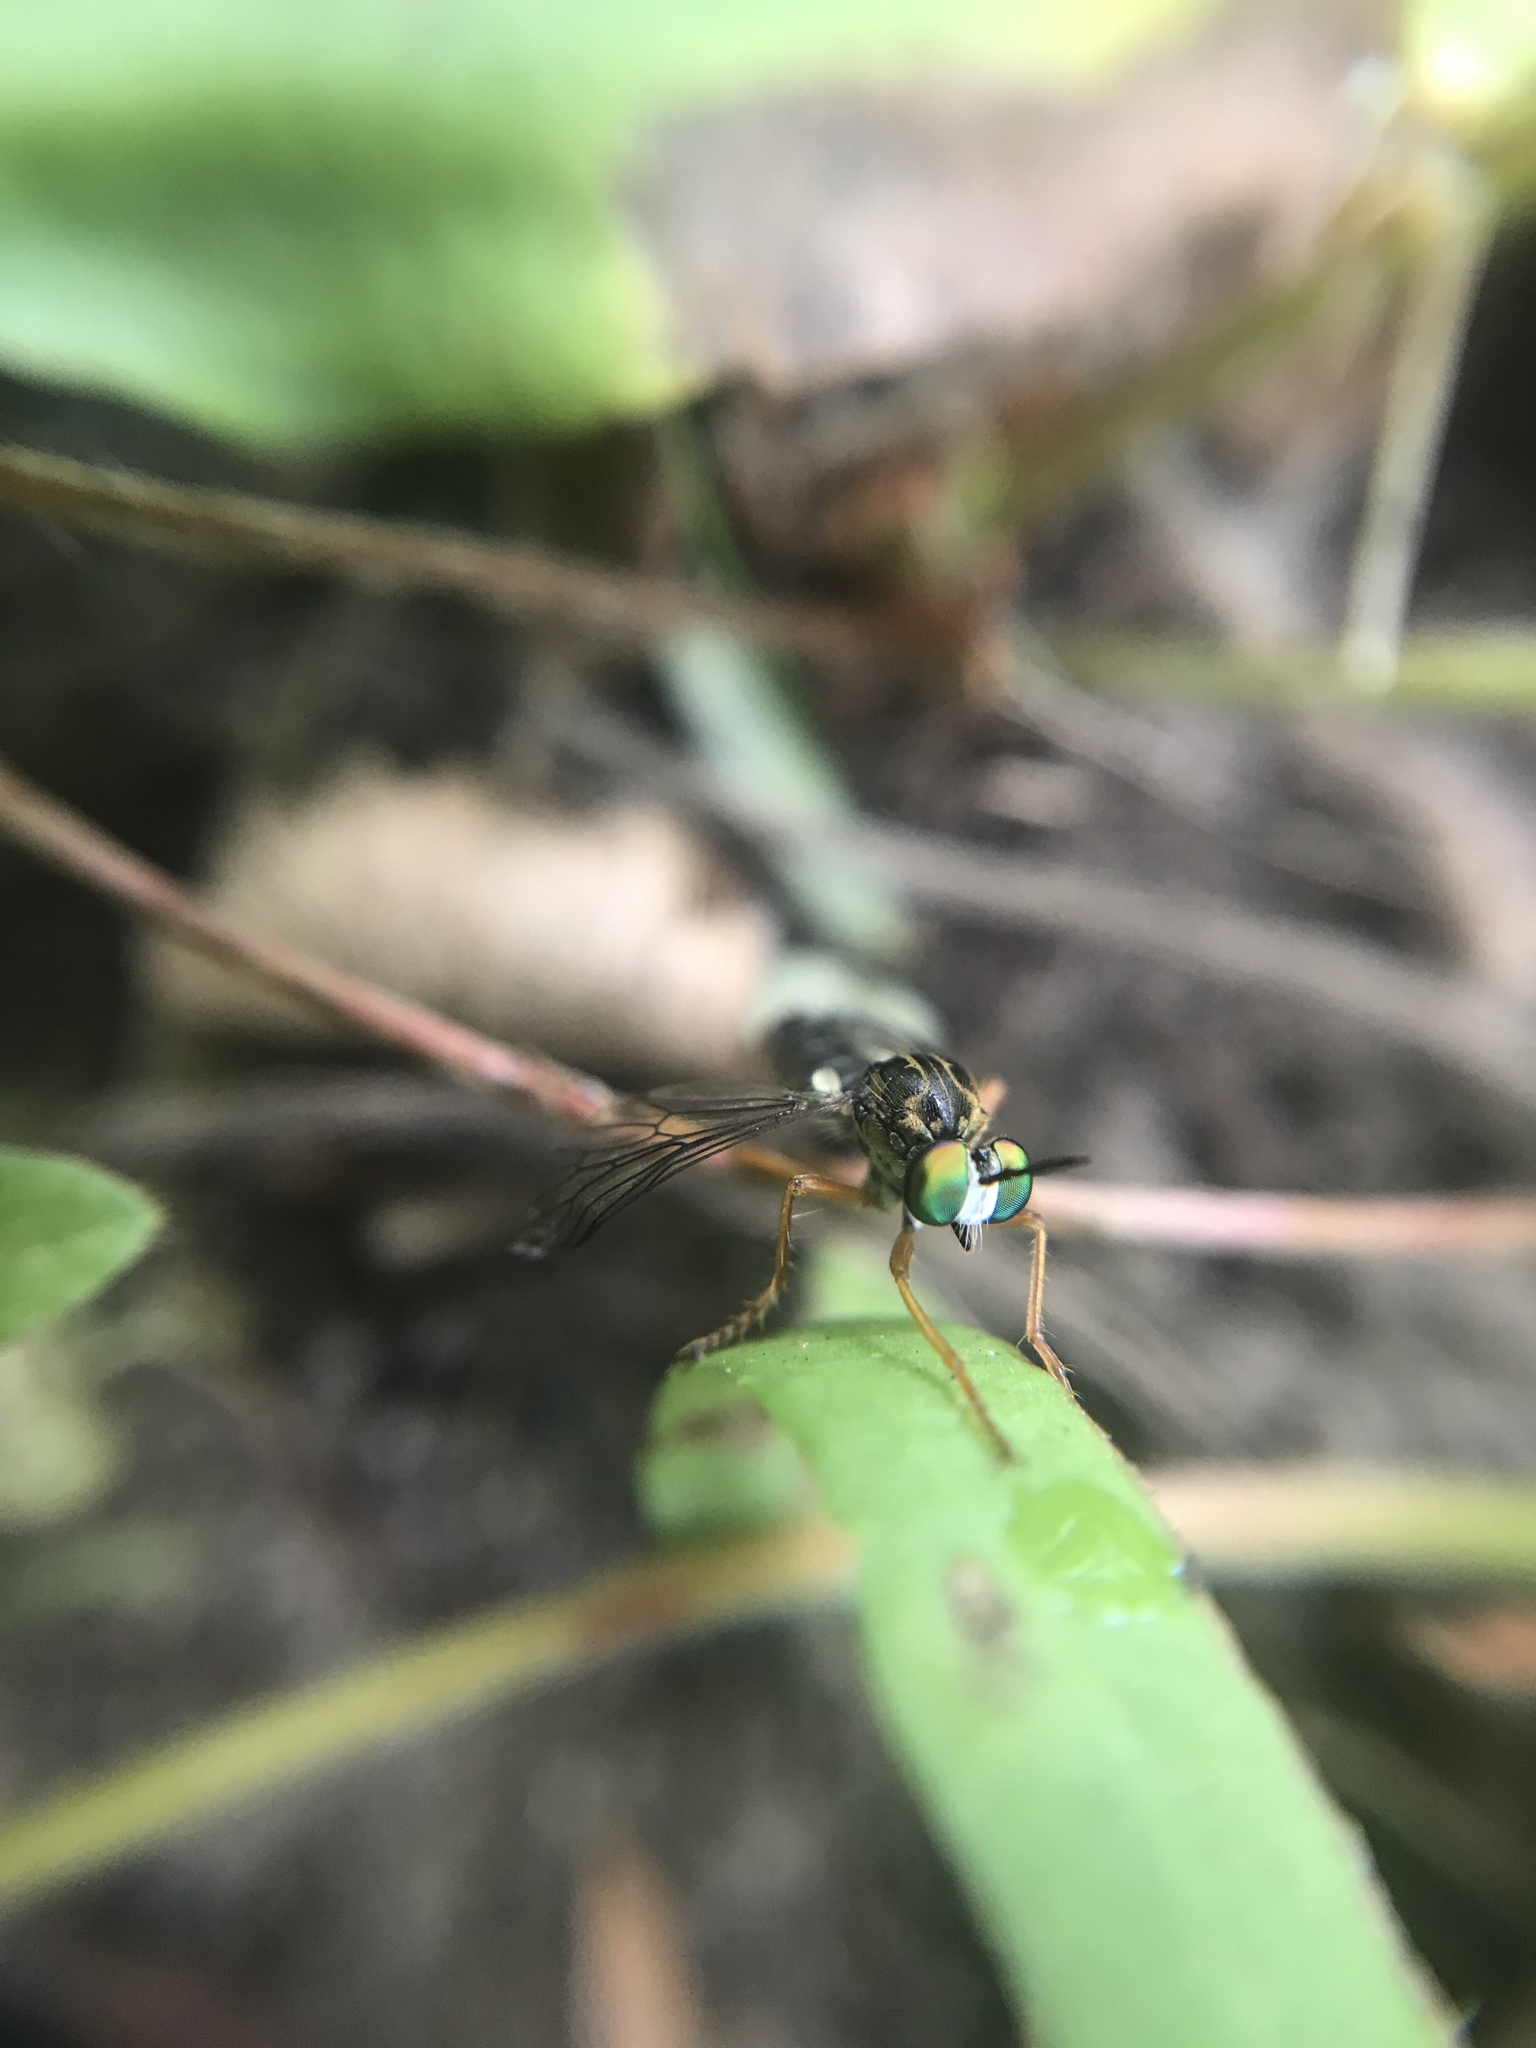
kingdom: Animalia
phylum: Arthropoda
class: Insecta
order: Diptera
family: Asilidae
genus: Taracticus
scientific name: Taracticus octopunctatus
